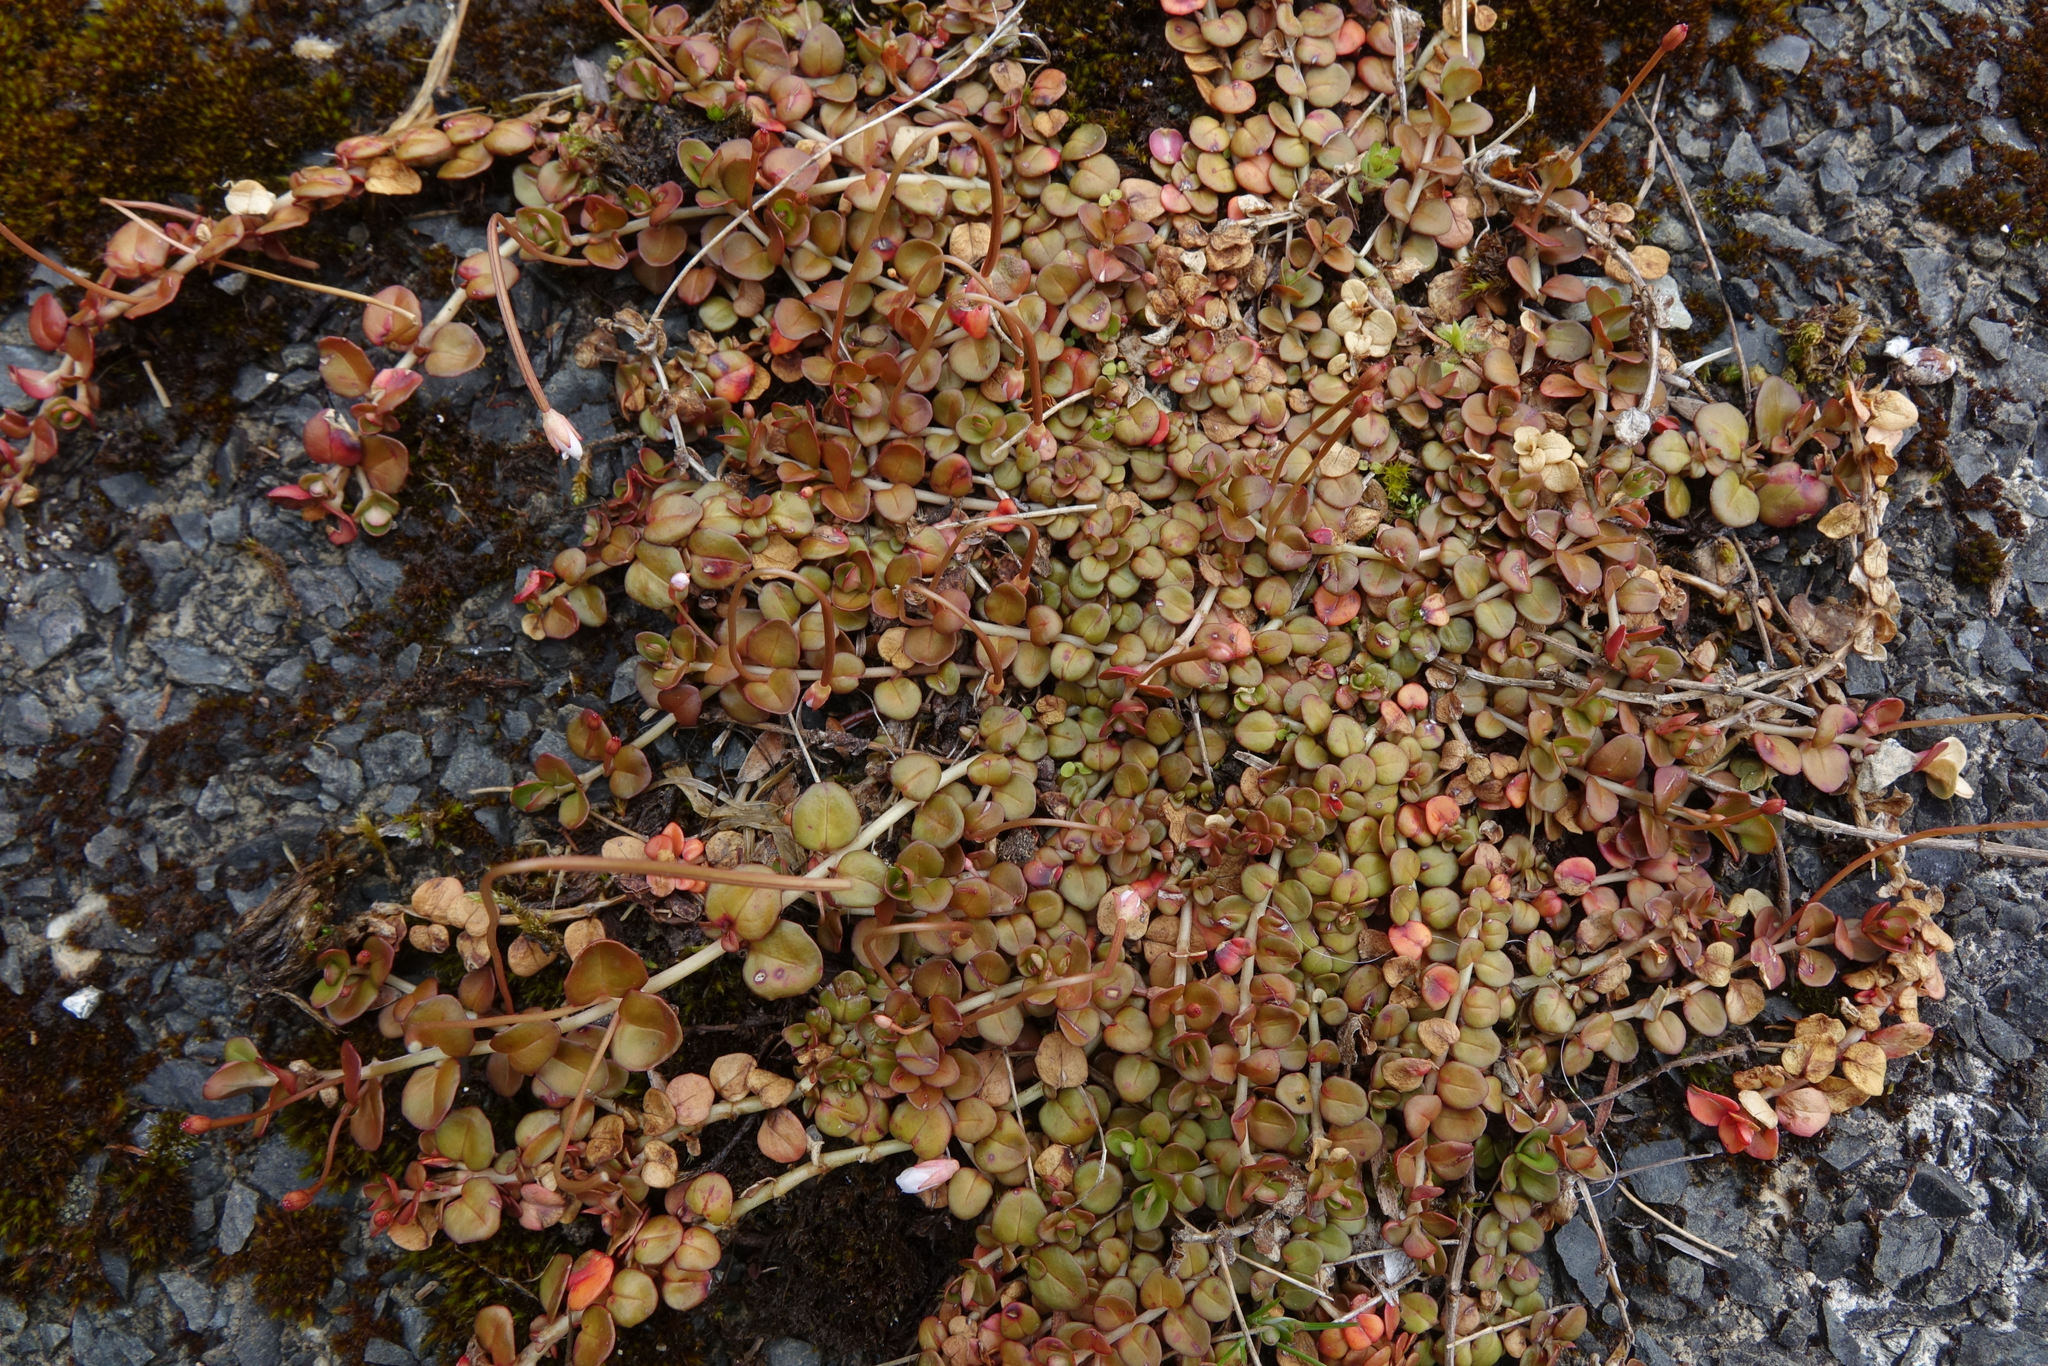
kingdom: Plantae
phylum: Tracheophyta
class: Magnoliopsida
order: Myrtales
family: Onagraceae
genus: Epilobium
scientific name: Epilobium brunnescens
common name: New zealand willowherb
